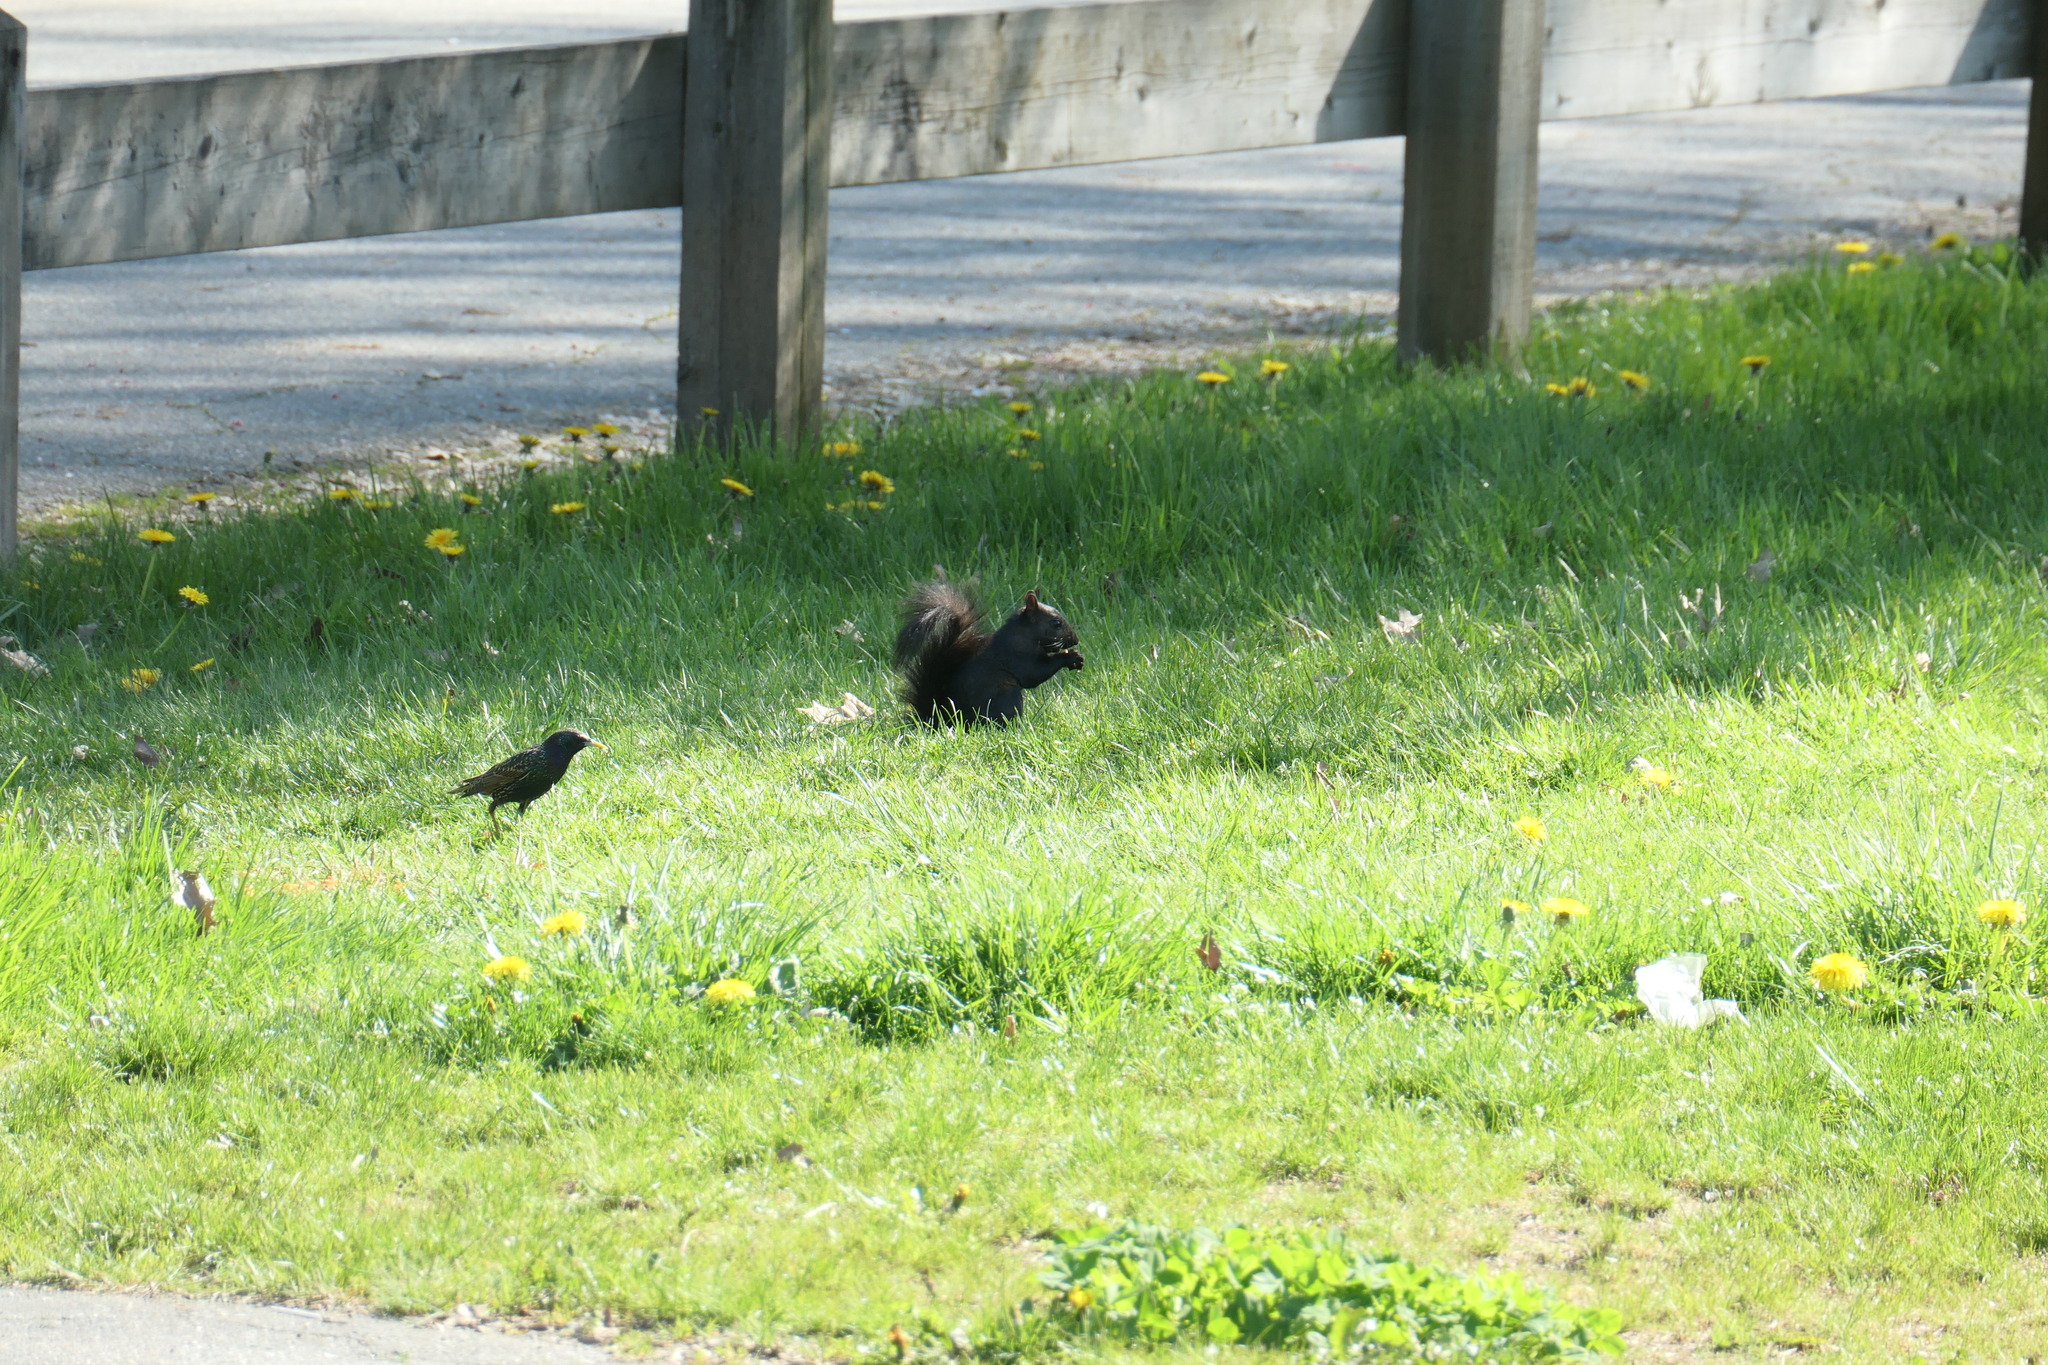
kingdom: Animalia
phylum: Chordata
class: Mammalia
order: Rodentia
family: Sciuridae
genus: Sciurus
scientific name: Sciurus carolinensis
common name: Eastern gray squirrel
